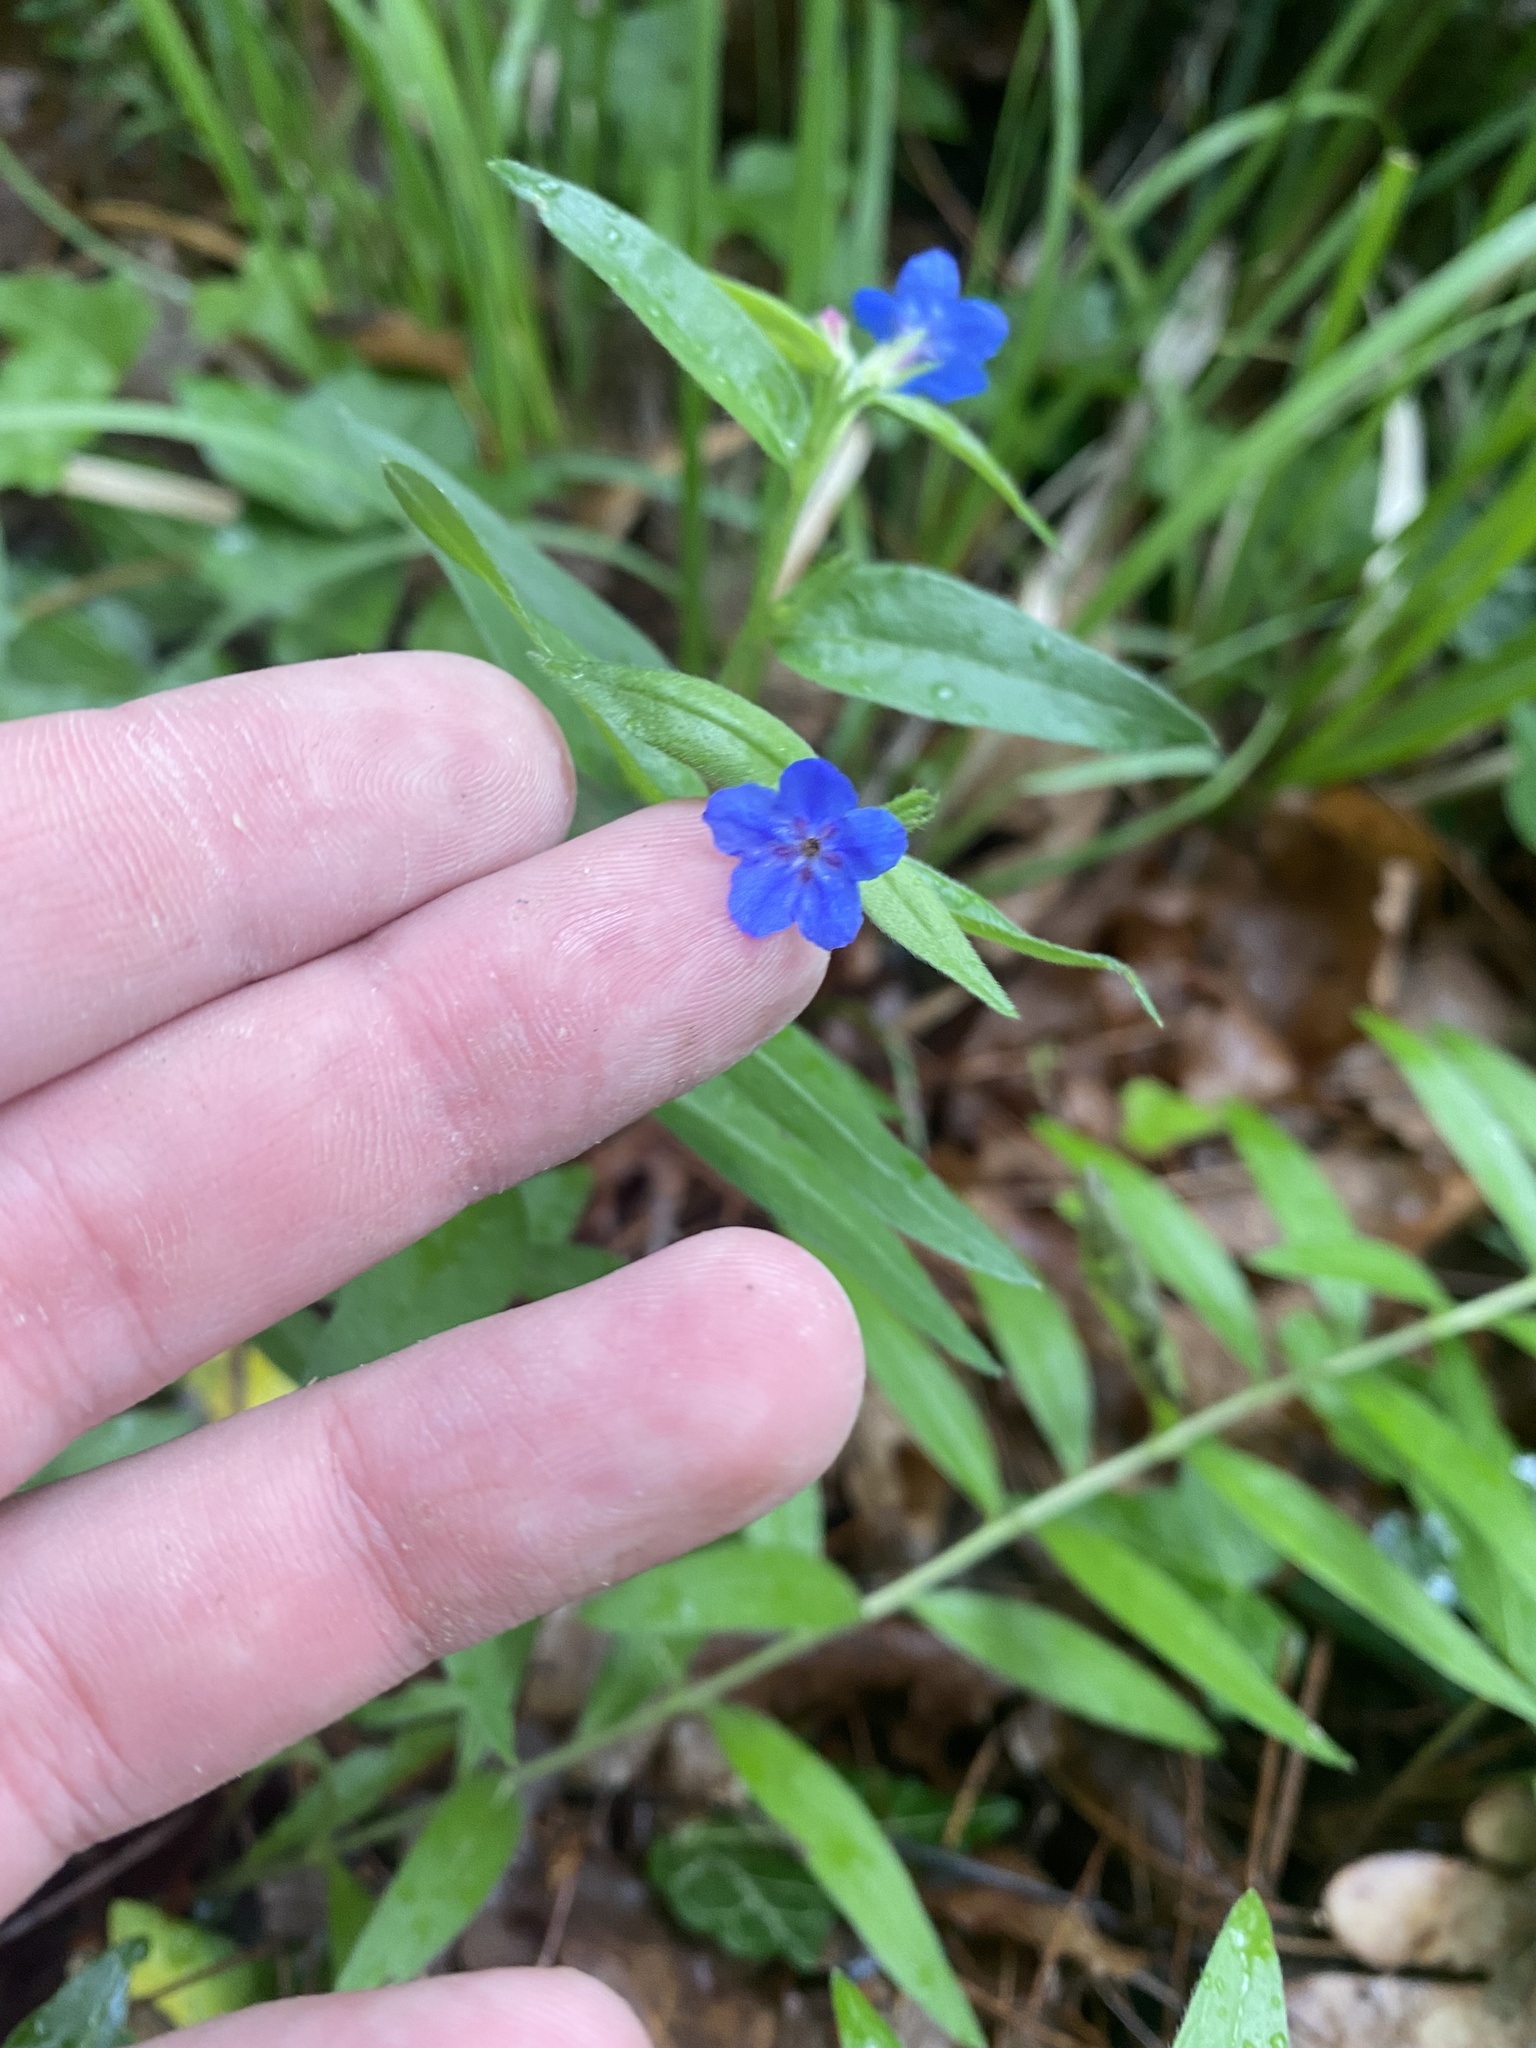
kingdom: Plantae
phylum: Tracheophyta
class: Magnoliopsida
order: Boraginales
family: Boraginaceae
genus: Aegonychon
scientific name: Aegonychon purpurocaeruleum
